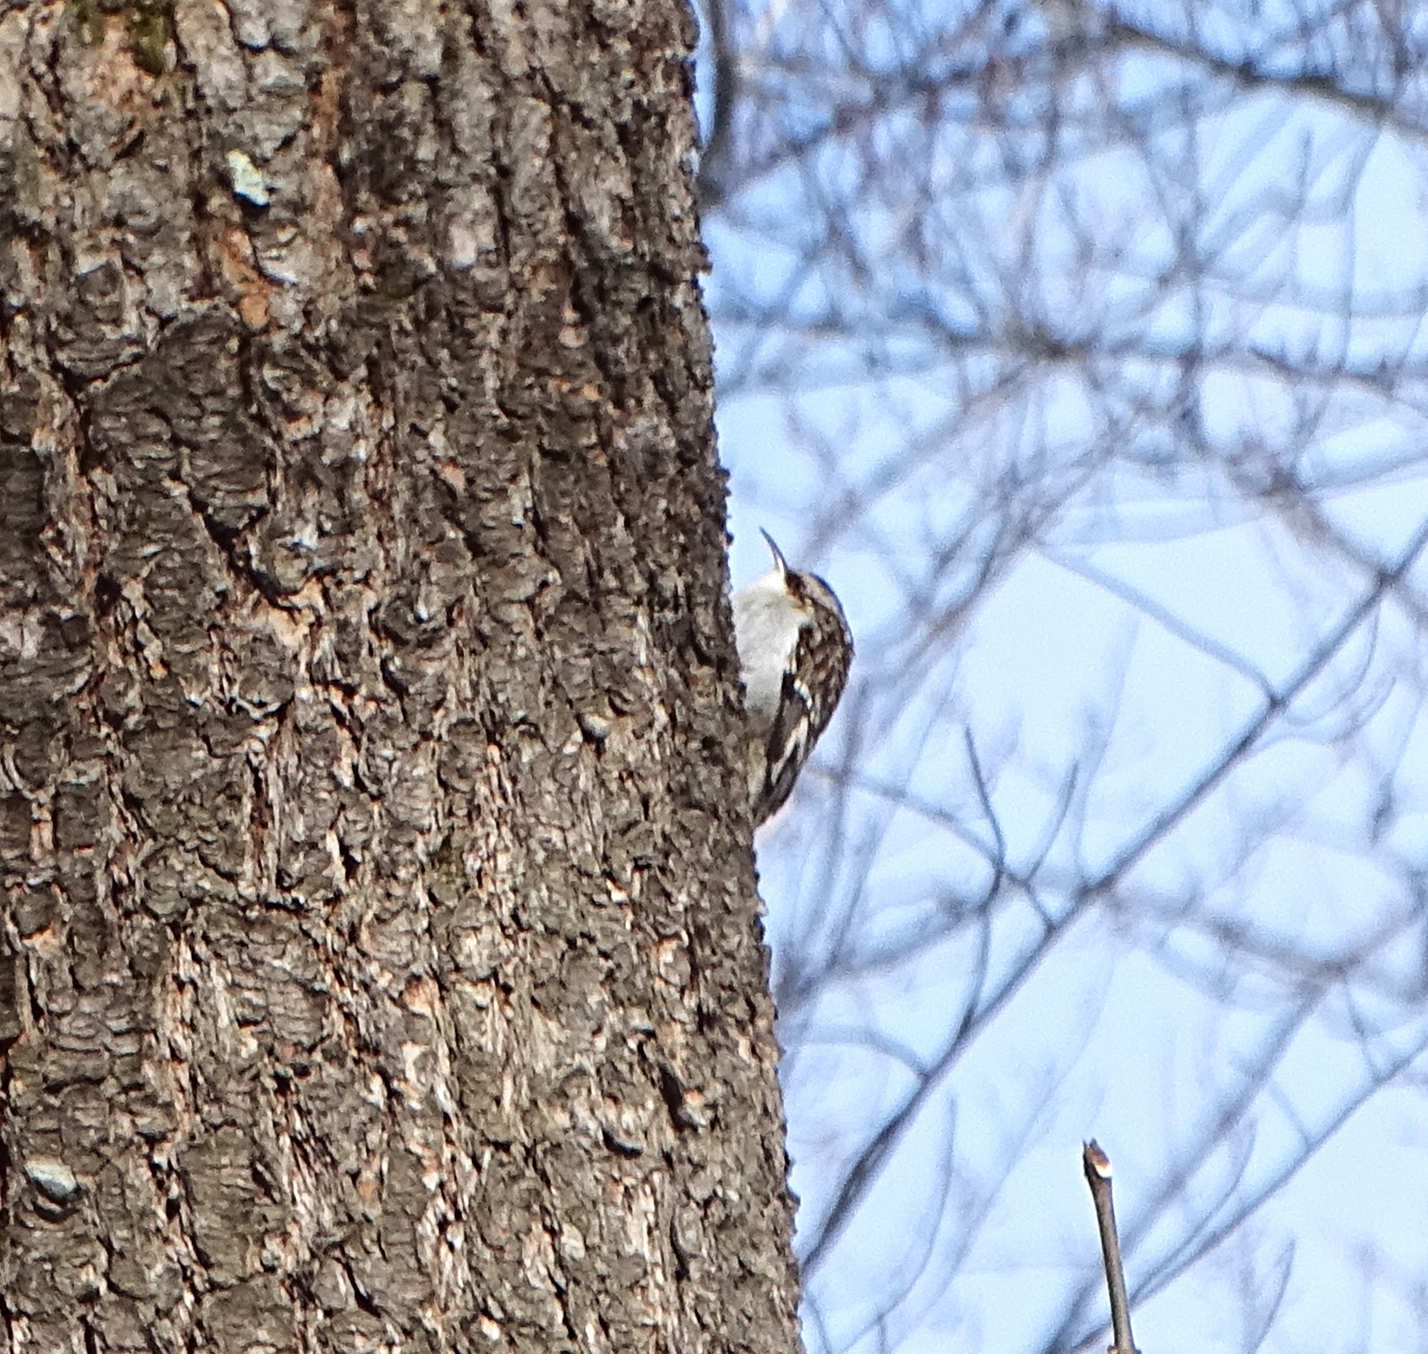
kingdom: Animalia
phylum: Chordata
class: Aves
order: Passeriformes
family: Certhiidae
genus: Certhia
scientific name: Certhia americana
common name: Brown creeper
